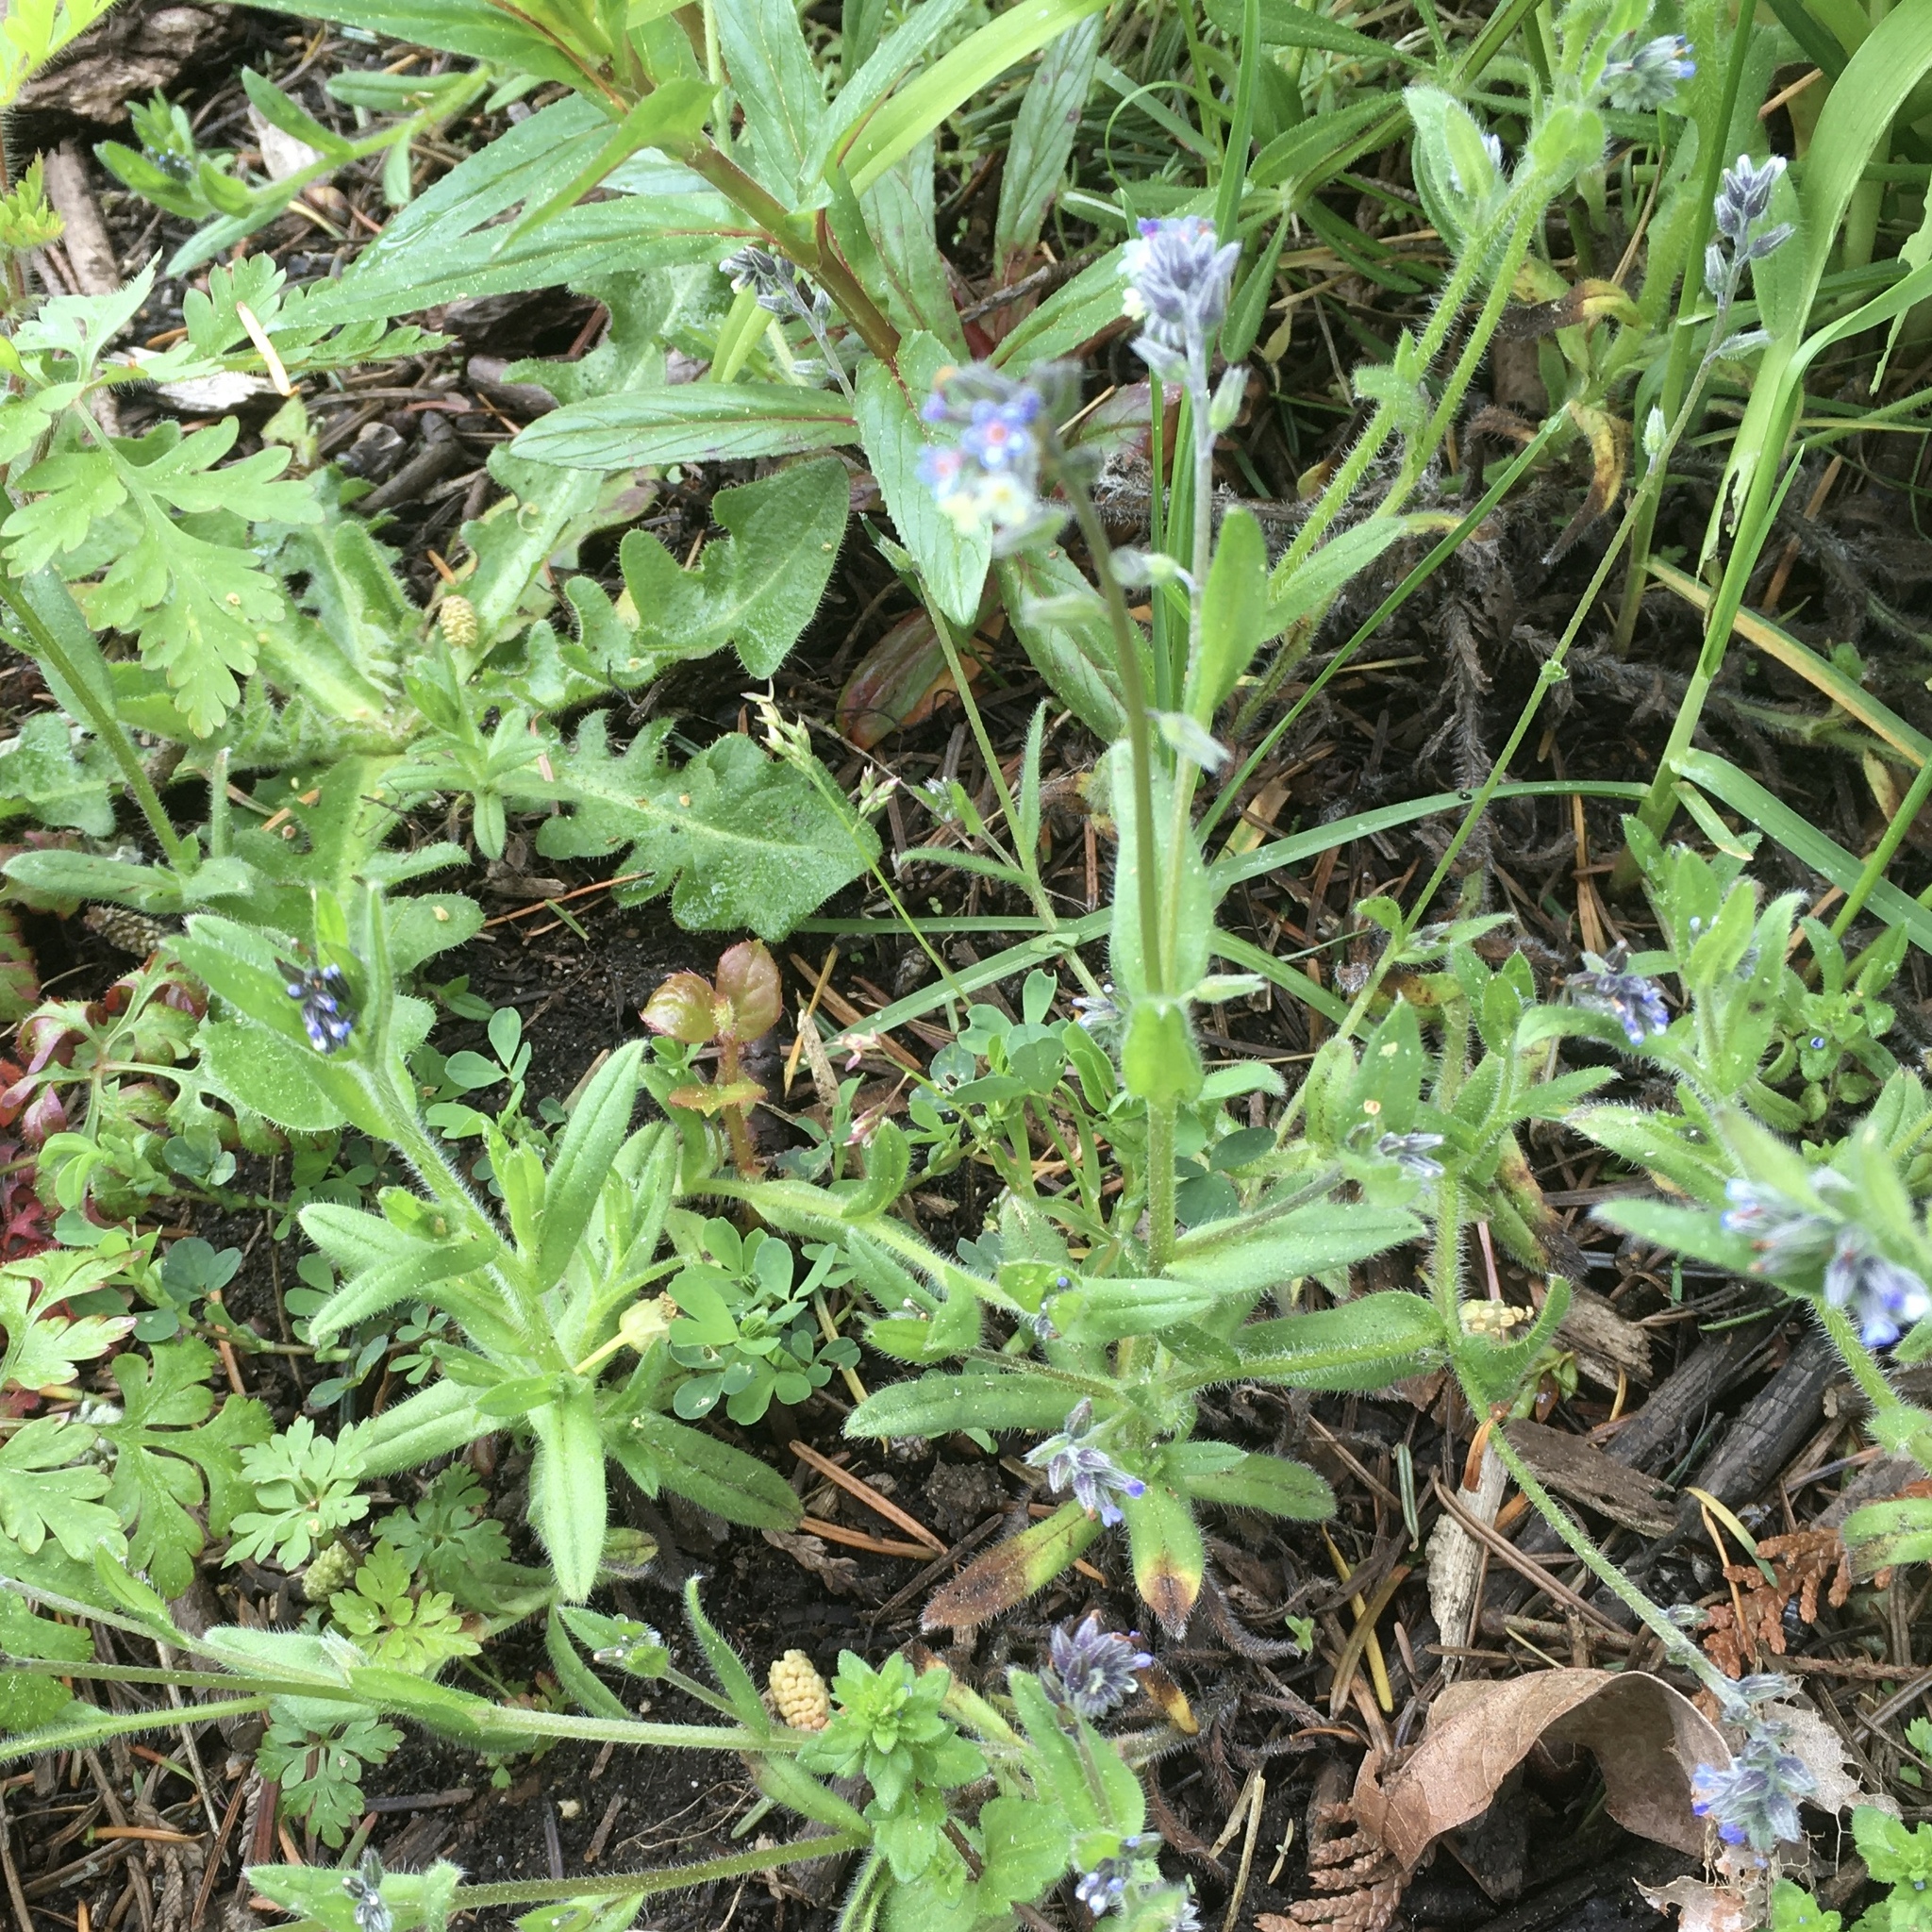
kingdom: Plantae
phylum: Tracheophyta
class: Magnoliopsida
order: Boraginales
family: Boraginaceae
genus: Myosotis
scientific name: Myosotis discolor
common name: Changing forget-me-not
